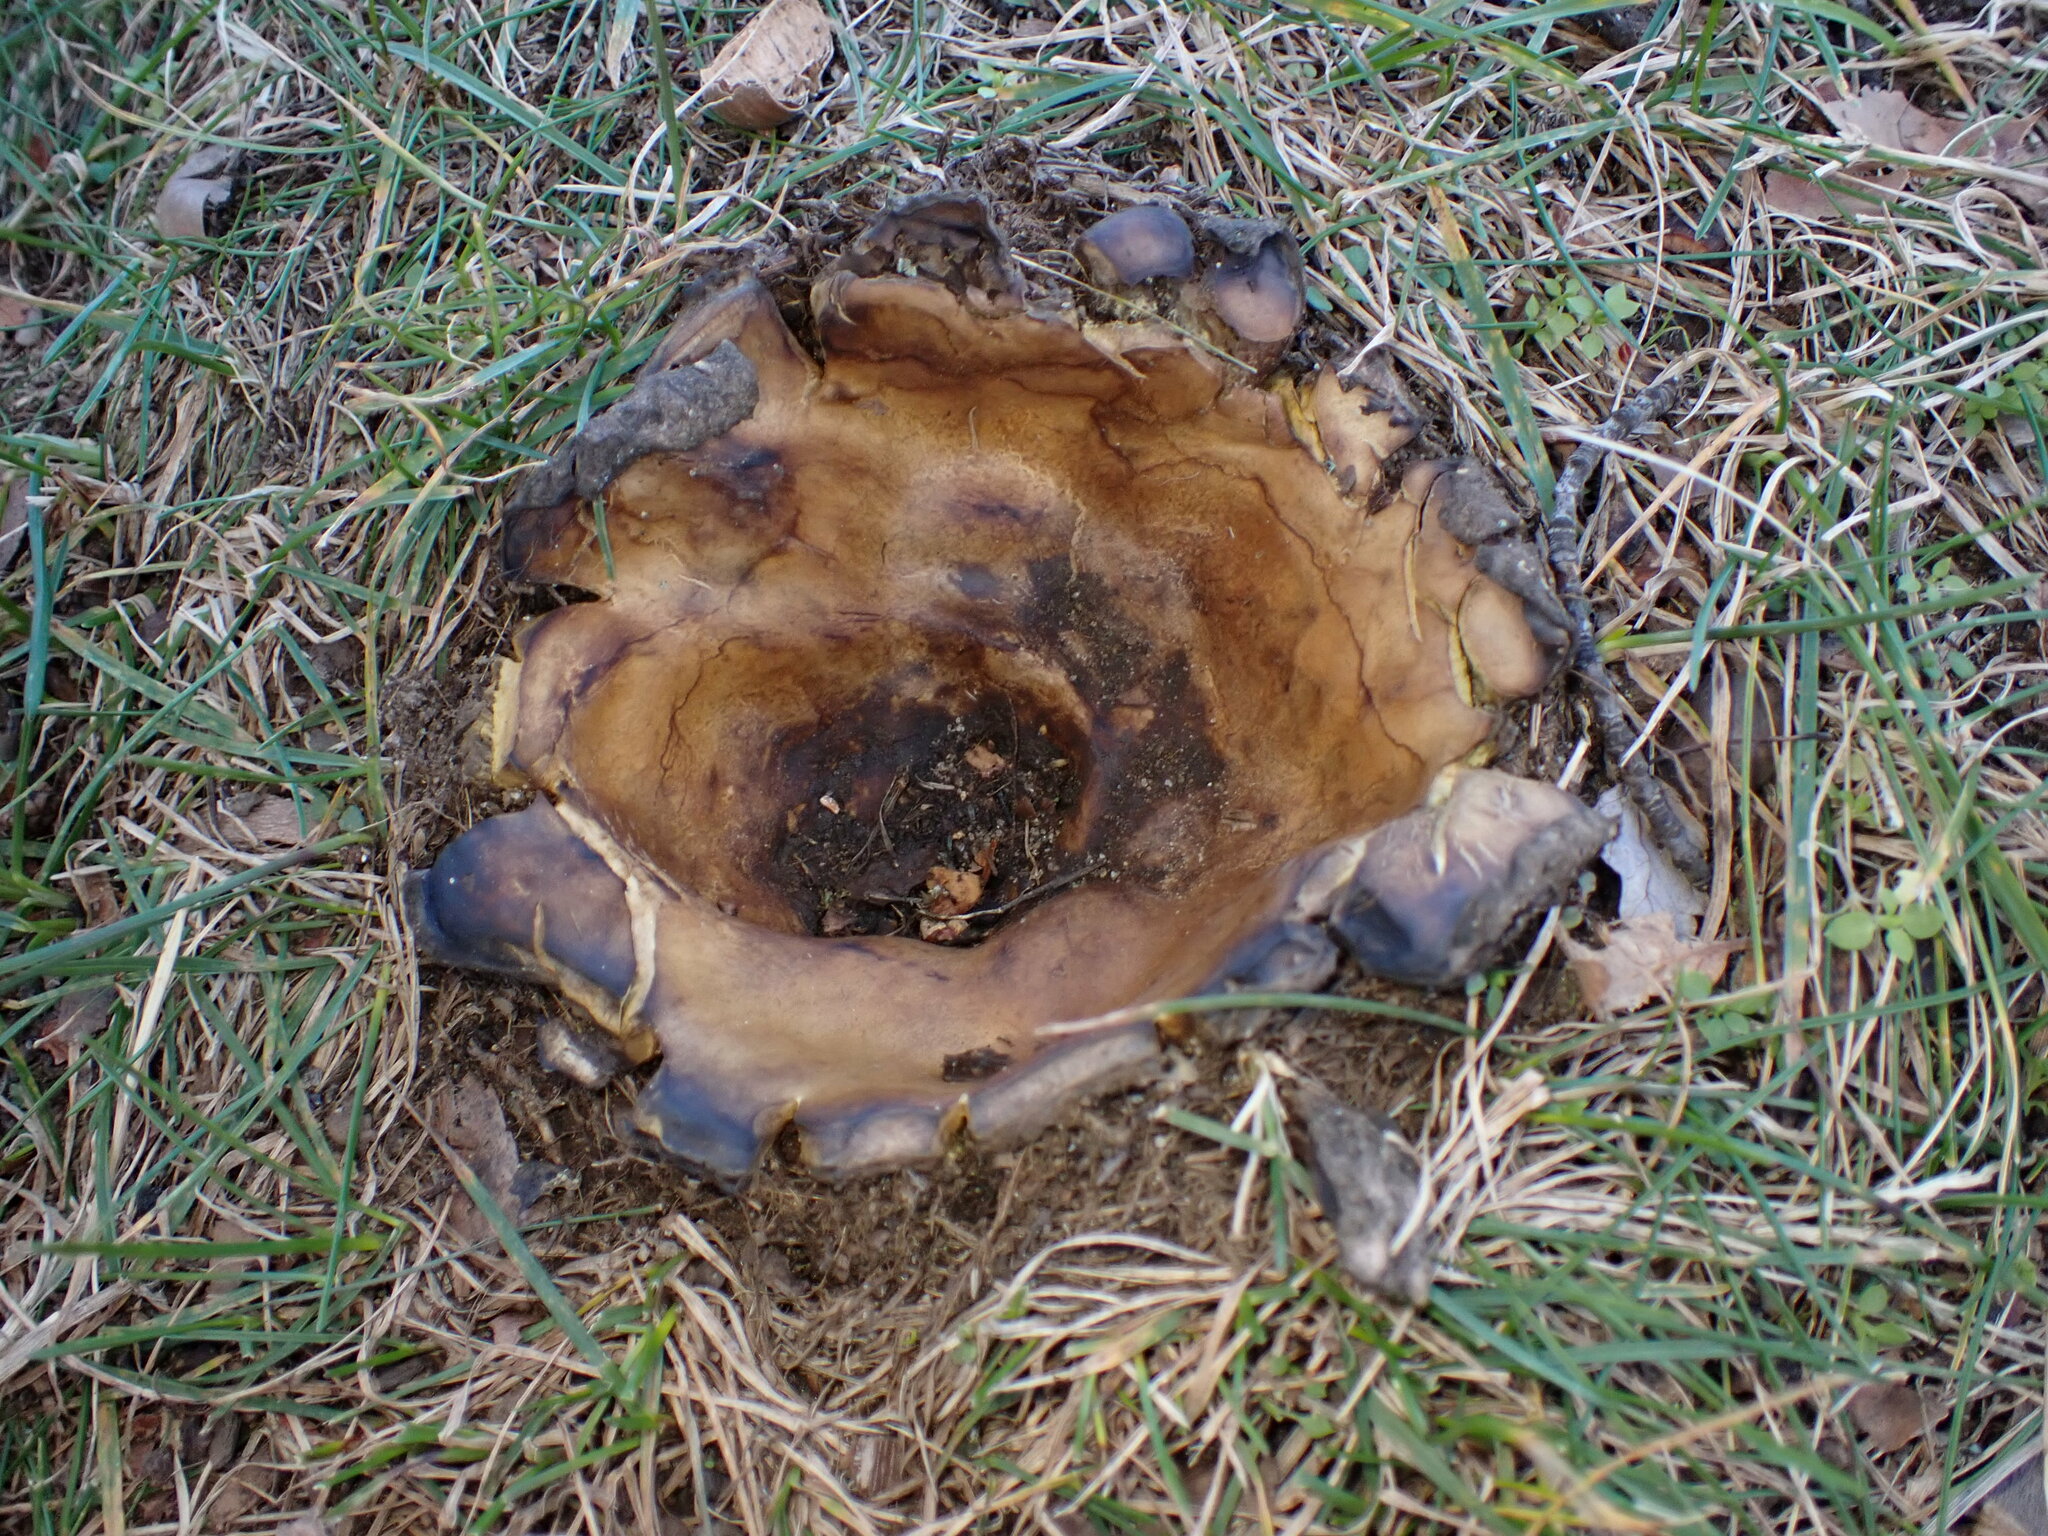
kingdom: Fungi
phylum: Basidiomycota
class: Agaricomycetes
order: Boletales
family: Sclerodermataceae
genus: Scleroderma
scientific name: Scleroderma polyrhizum
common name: Many-rooted earthball
